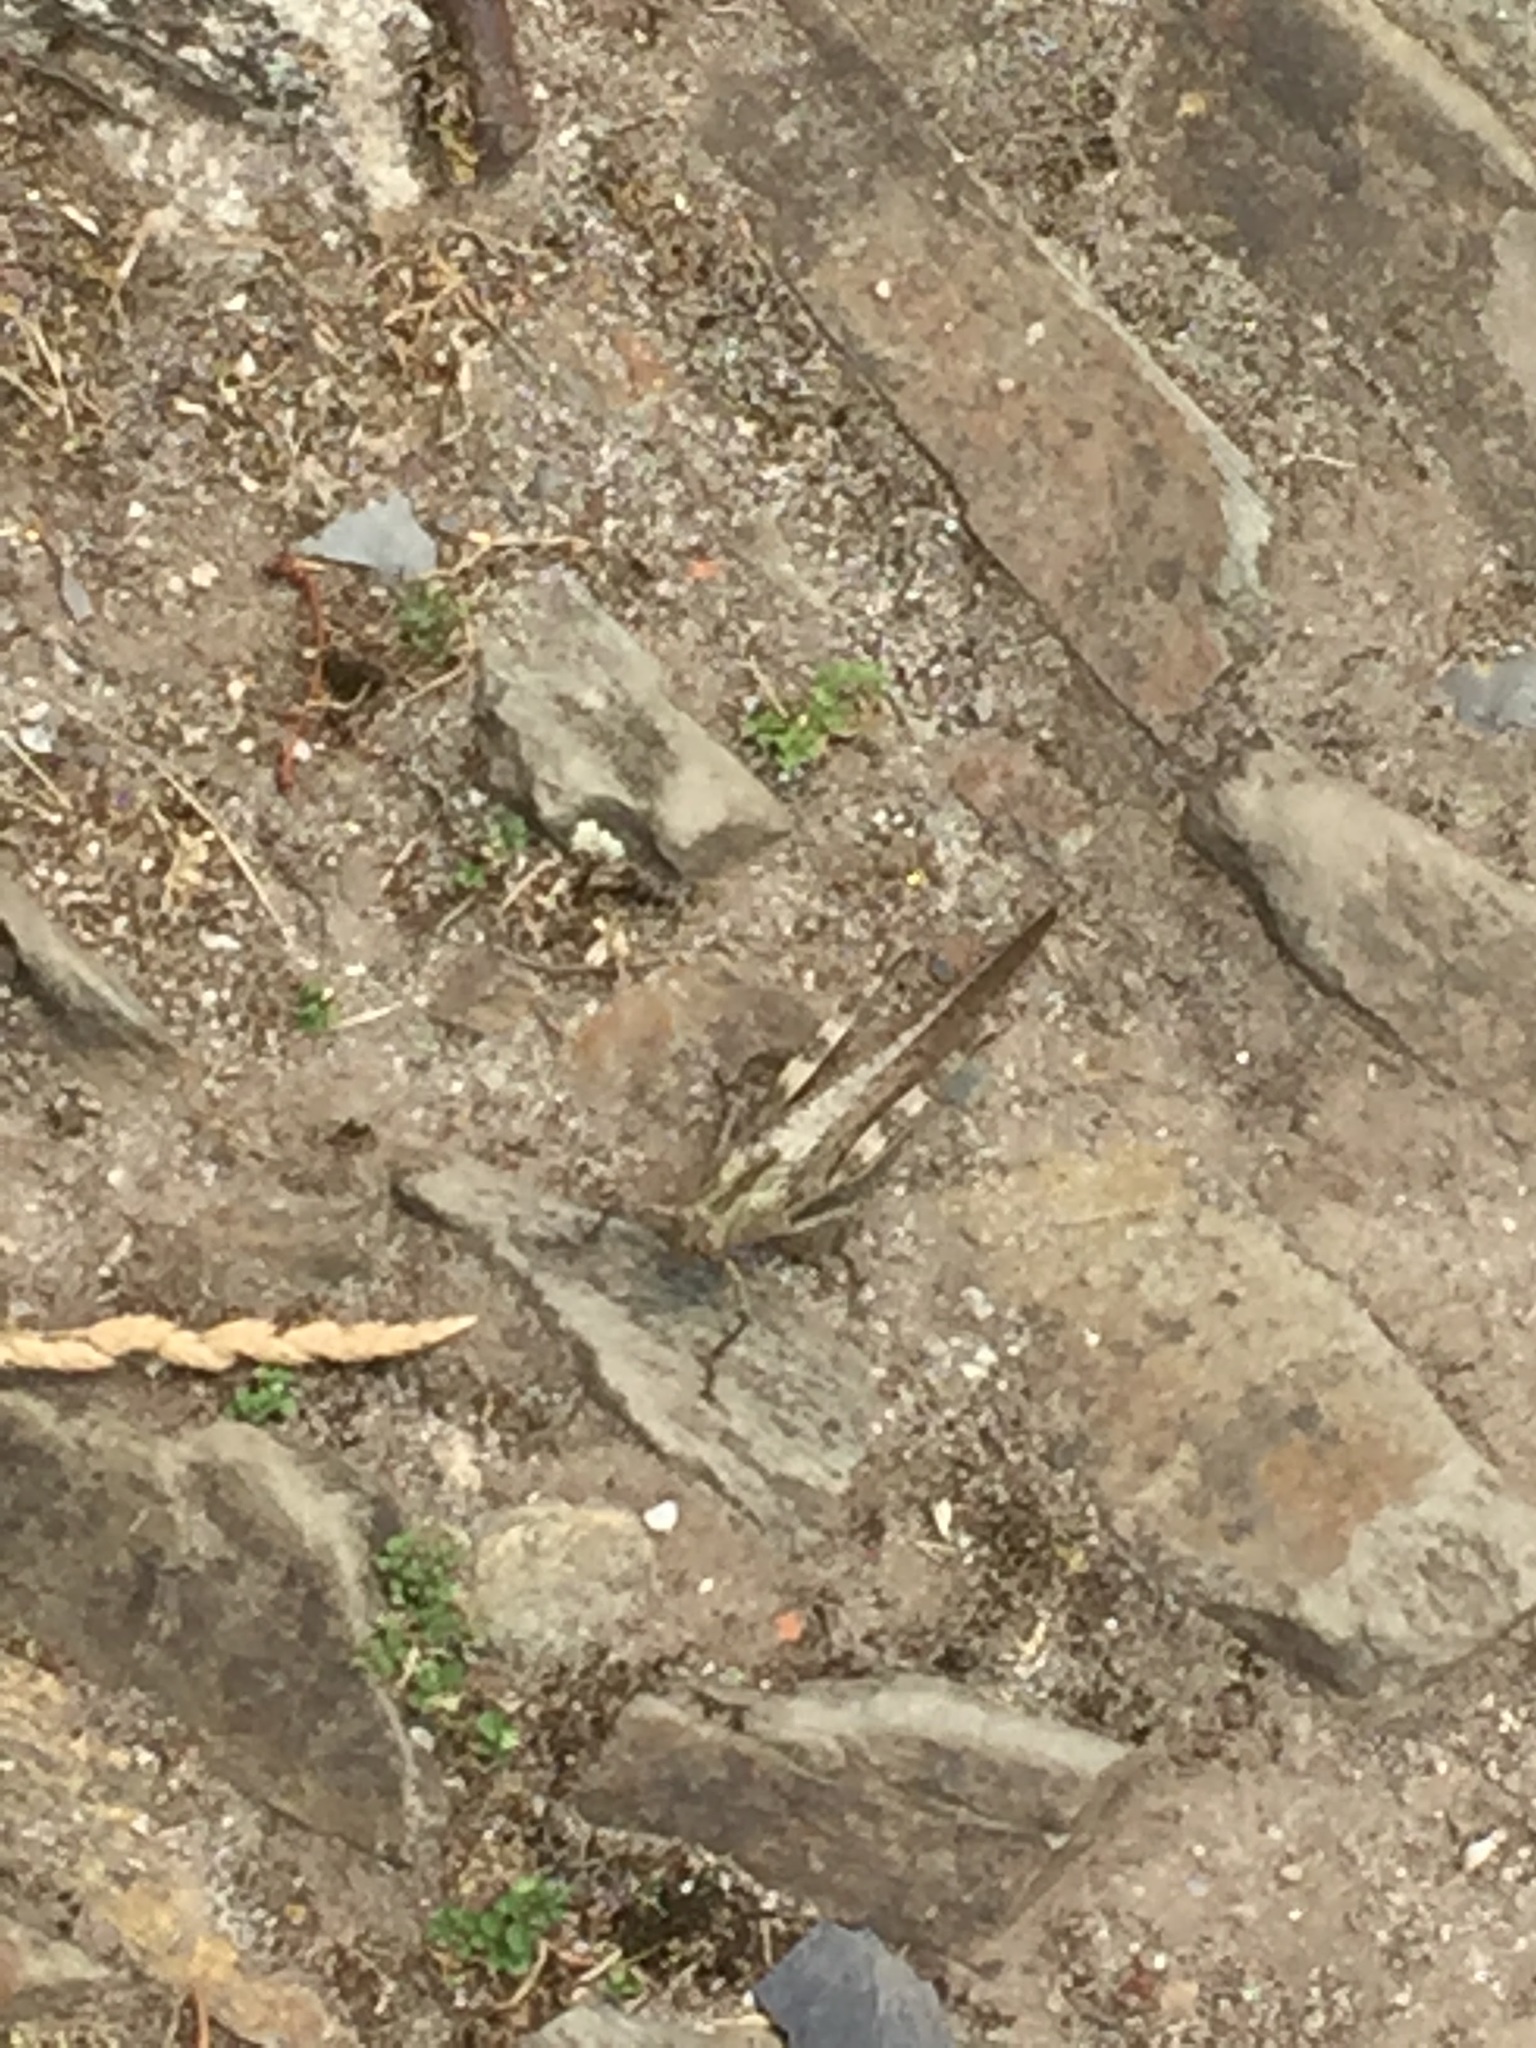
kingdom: Animalia
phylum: Arthropoda
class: Insecta
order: Orthoptera
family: Acrididae
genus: Anacridium
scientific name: Anacridium aegyptium
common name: Egyptian grasshopper
